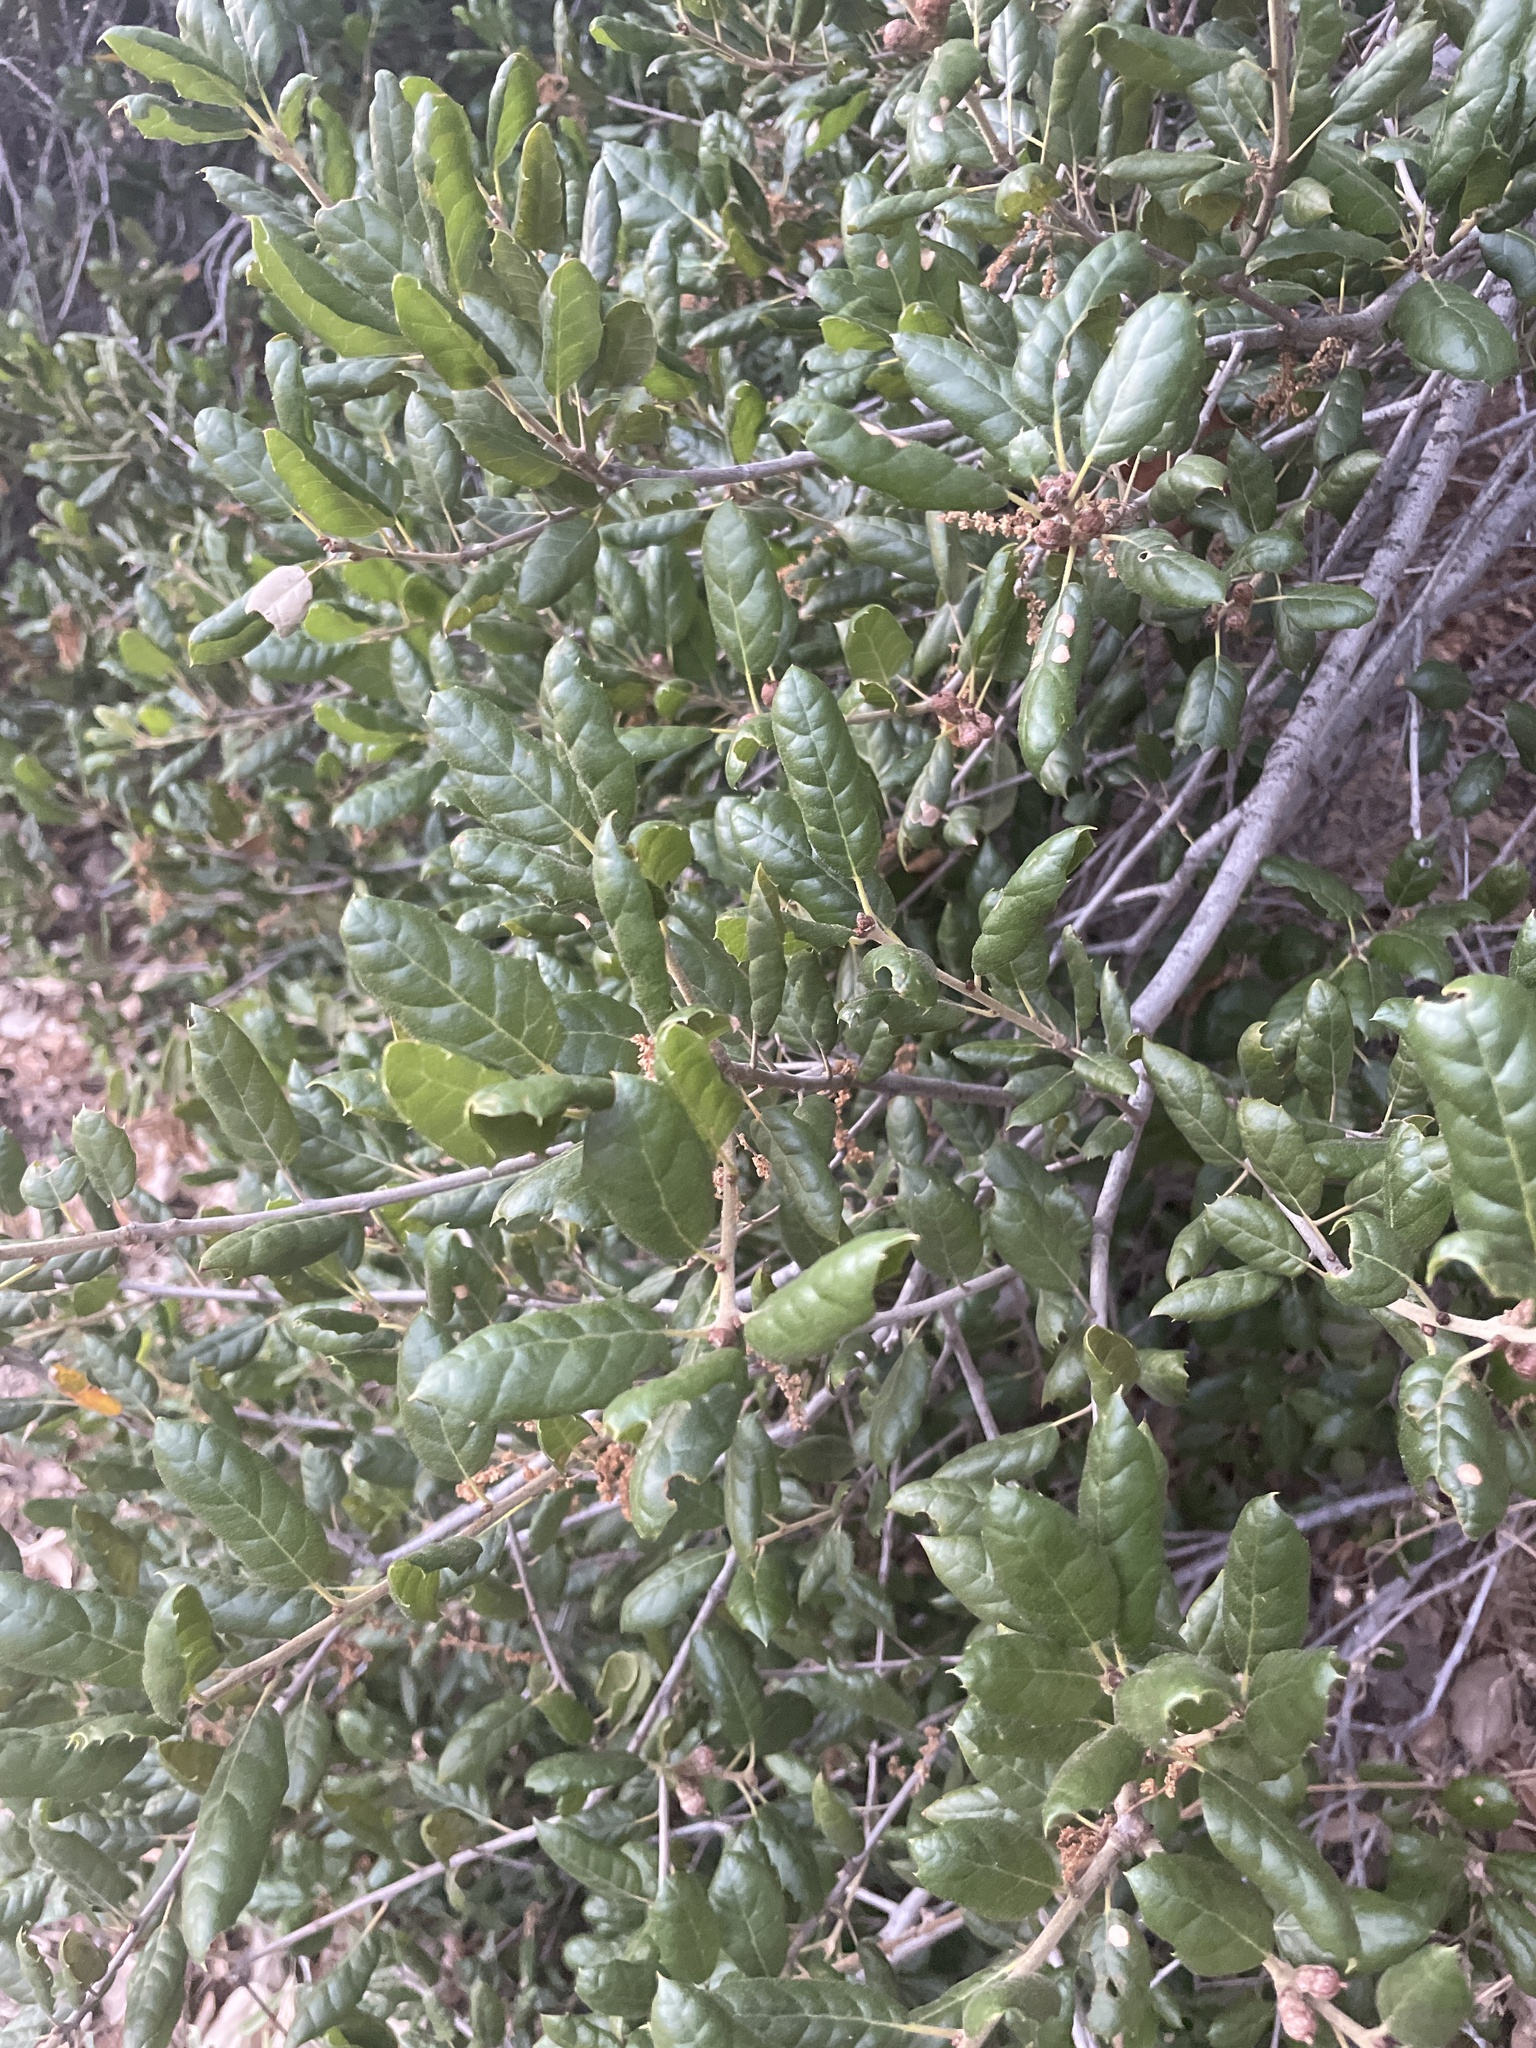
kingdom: Plantae
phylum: Tracheophyta
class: Magnoliopsida
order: Fagales
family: Fagaceae
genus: Quercus
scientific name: Quercus agrifolia
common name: California live oak
